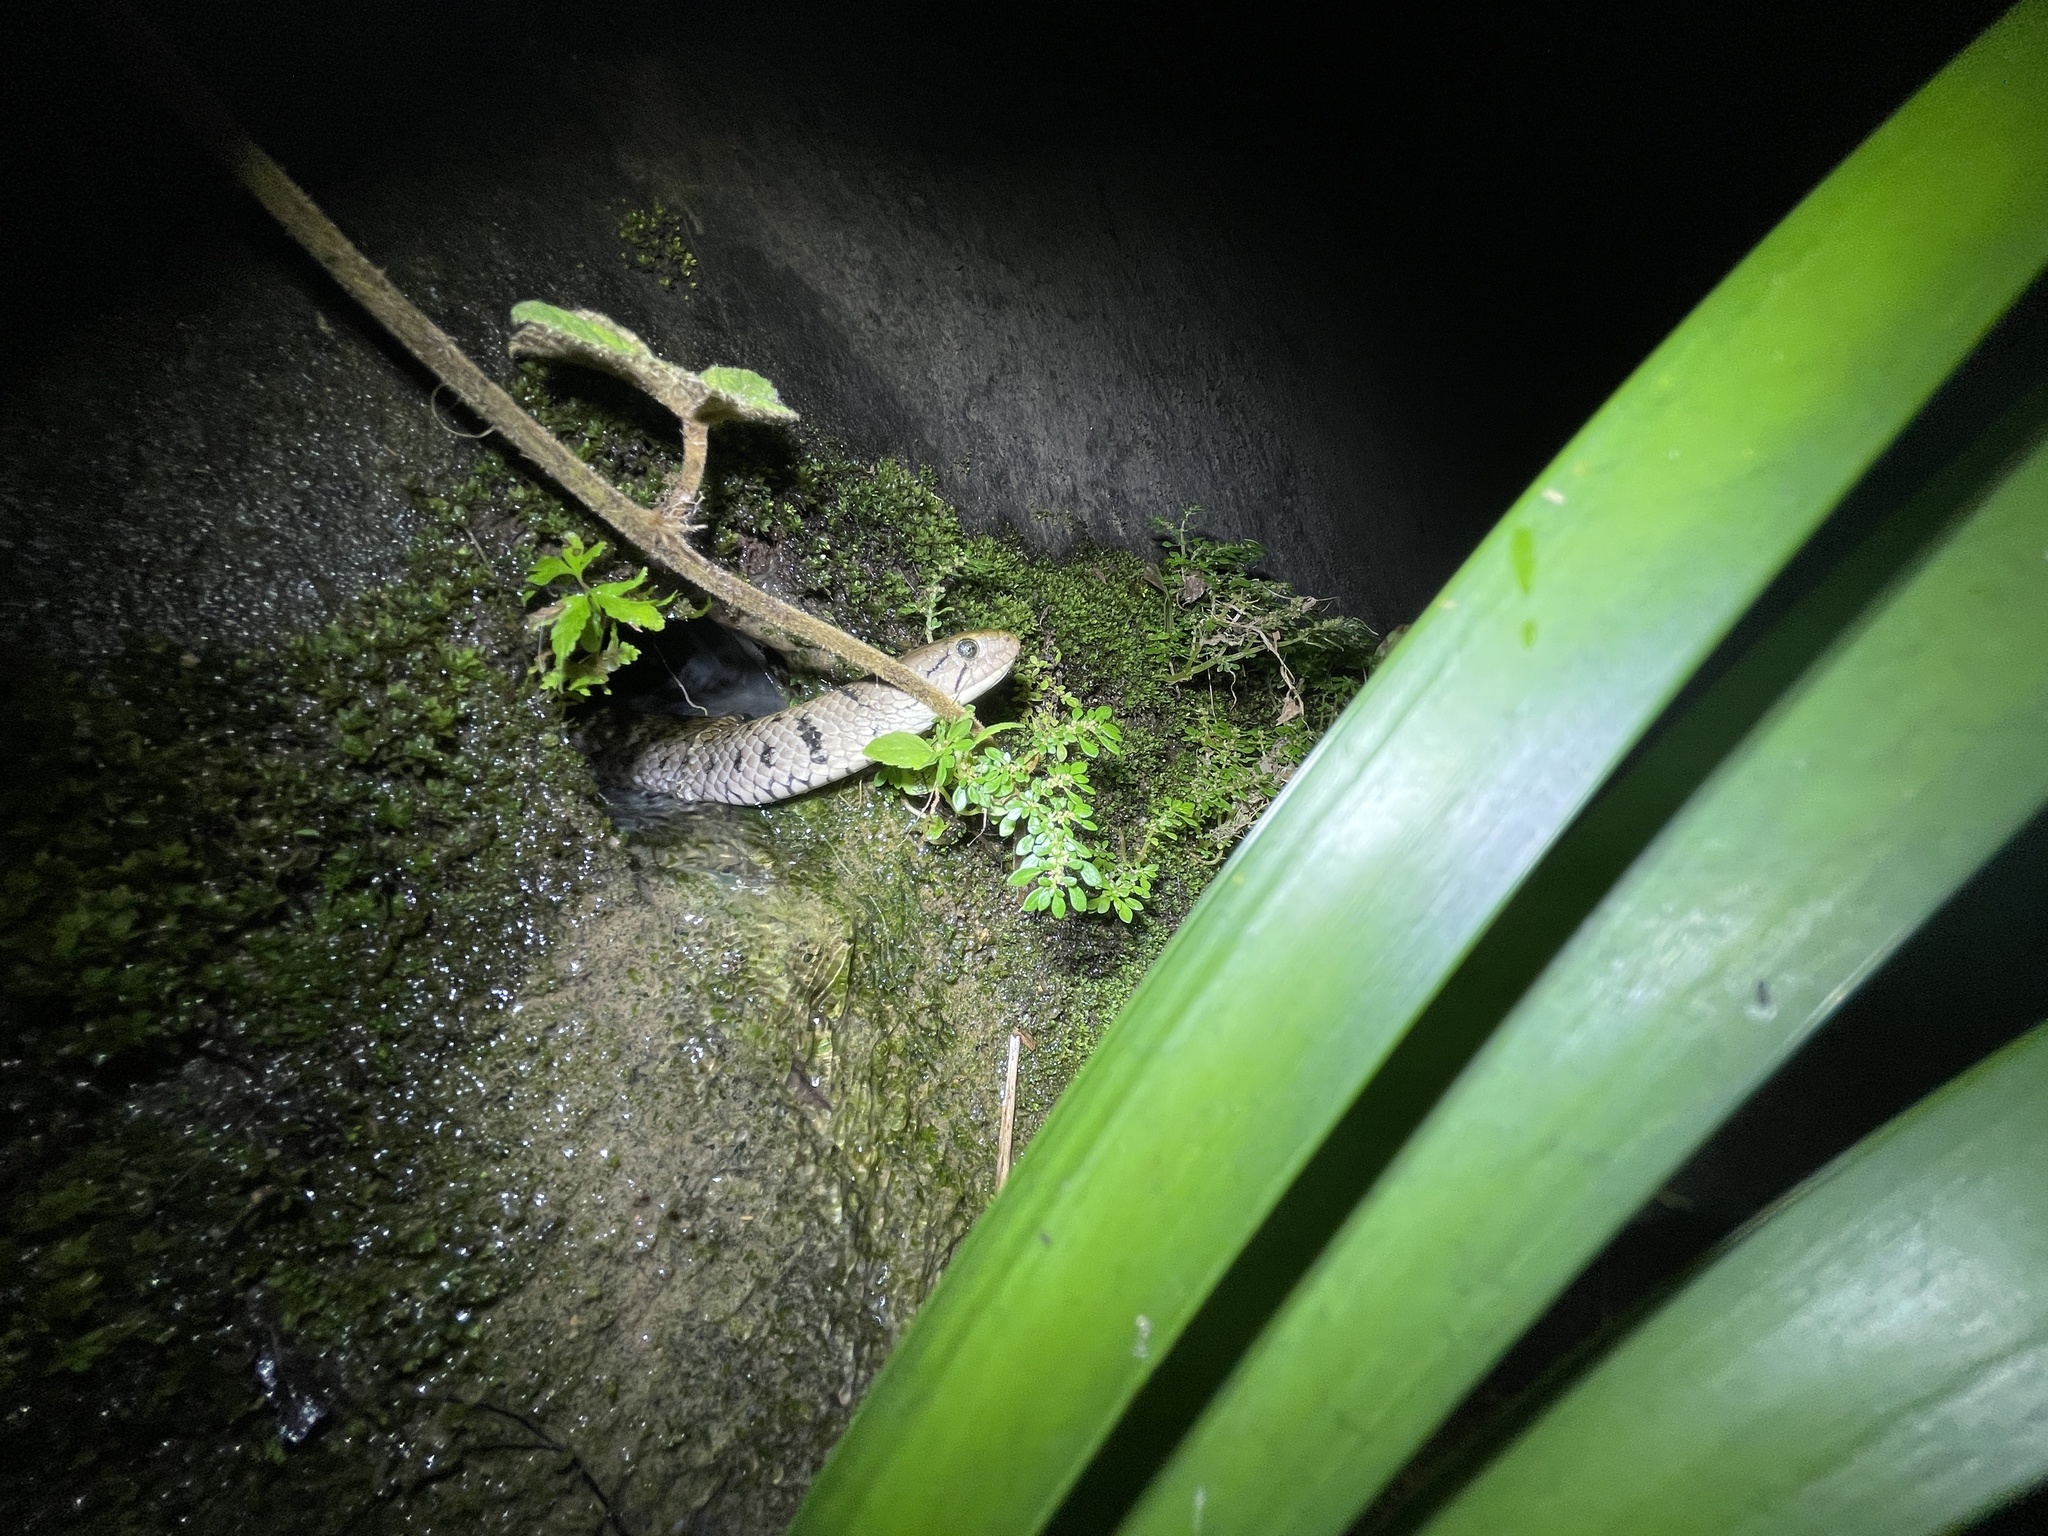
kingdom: Animalia
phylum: Chordata
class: Squamata
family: Colubridae
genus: Fowlea
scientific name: Fowlea flavipunctatus
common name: Yellow-spotted keelback
